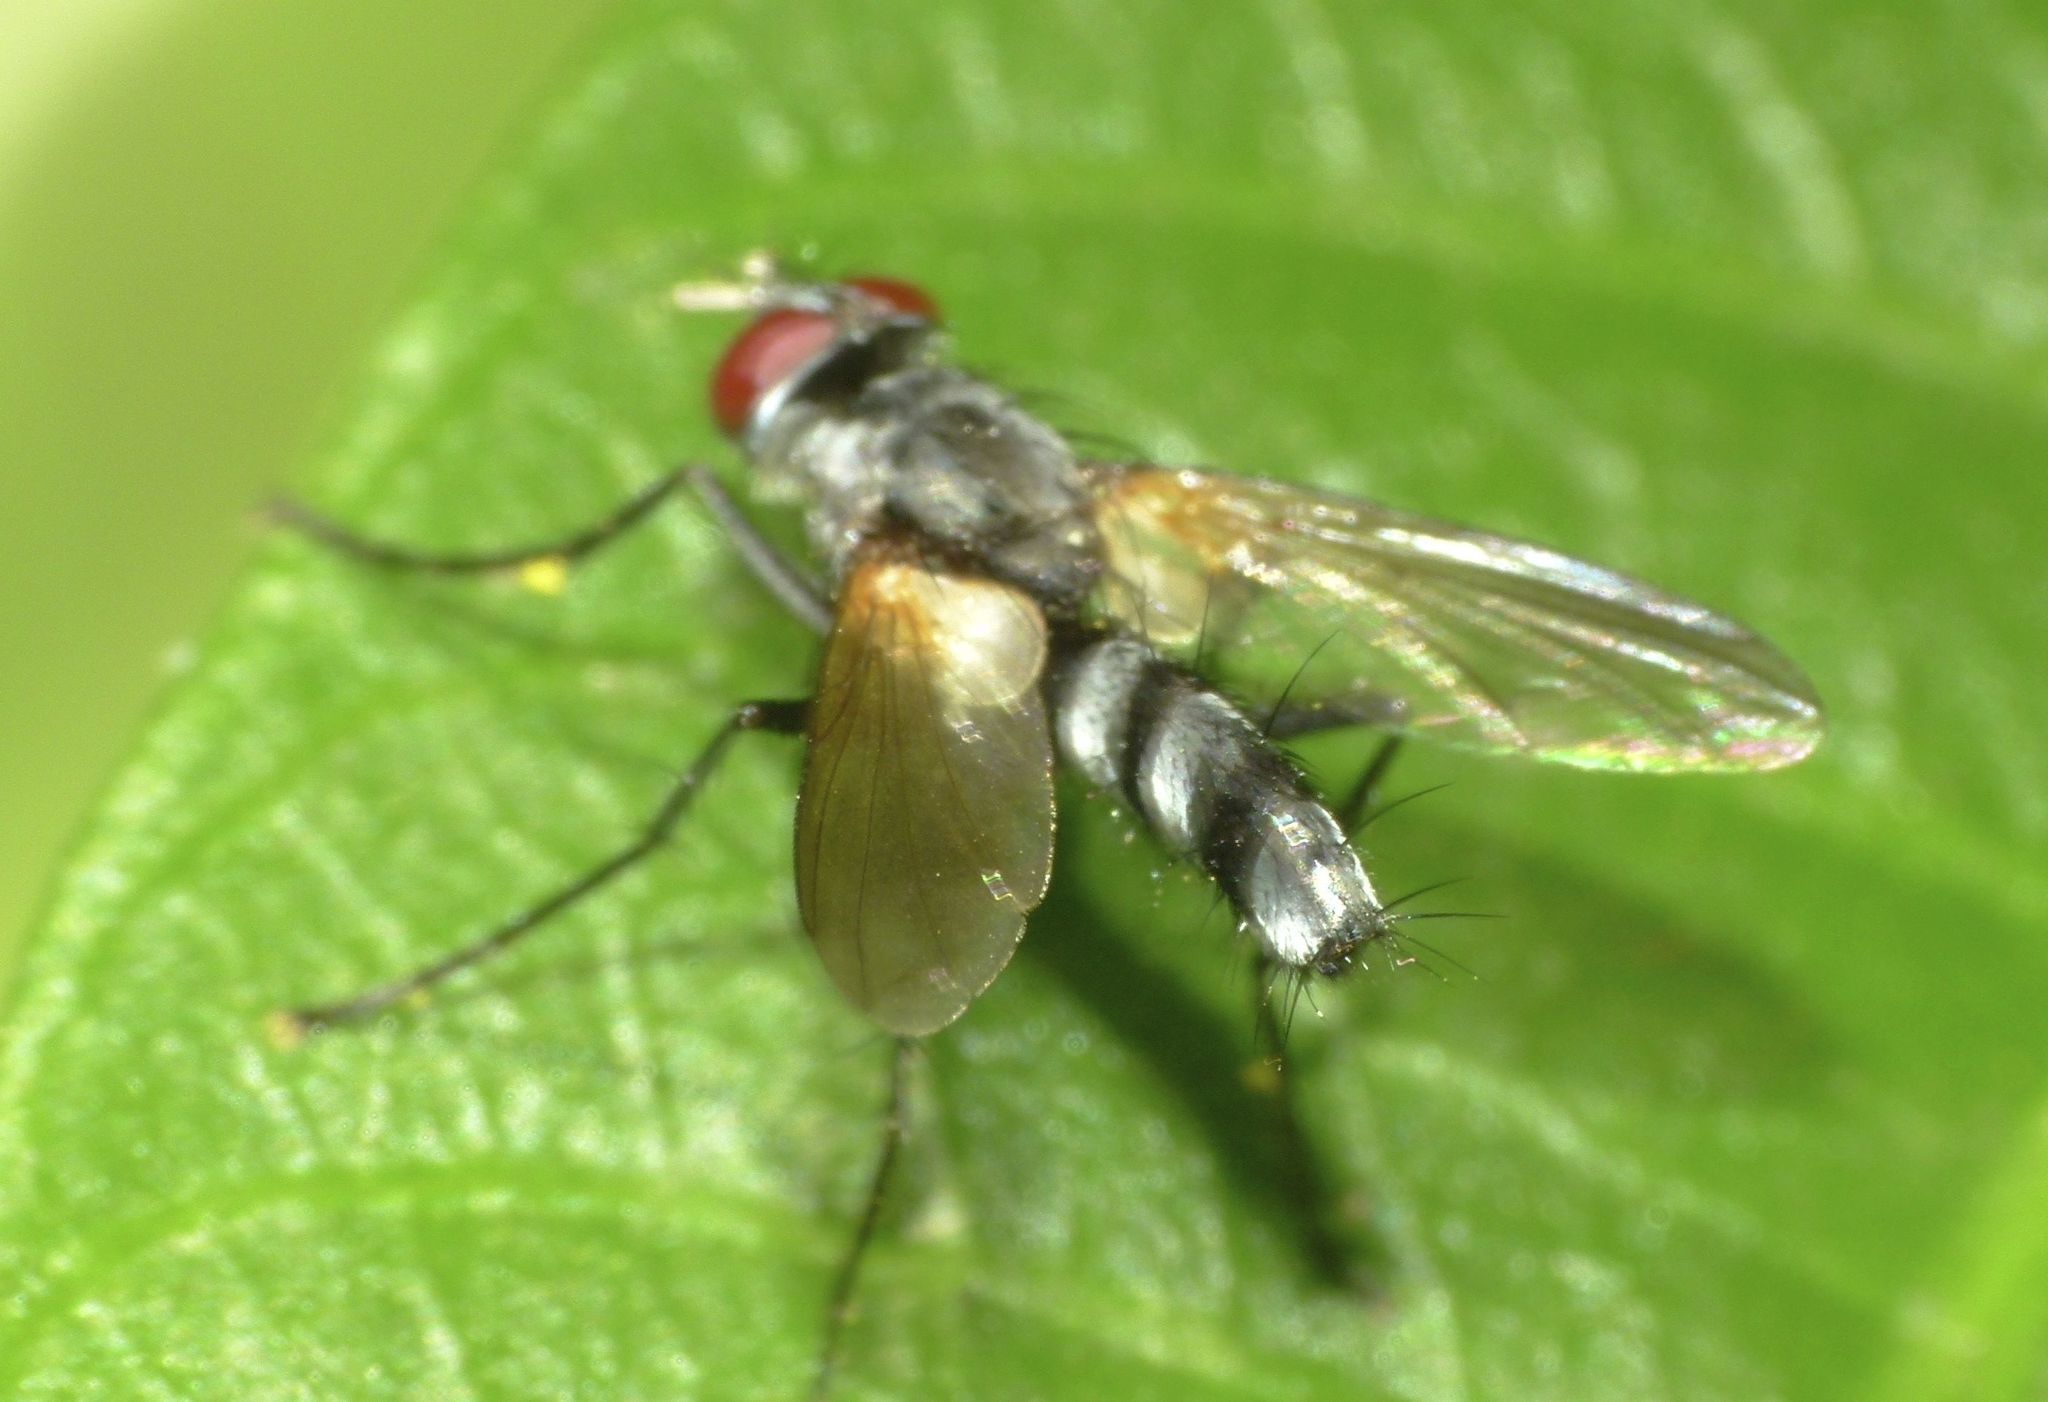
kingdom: Animalia
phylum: Arthropoda
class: Insecta
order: Diptera
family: Tachinidae
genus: Sumpigaster
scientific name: Sumpigaster fasciata
